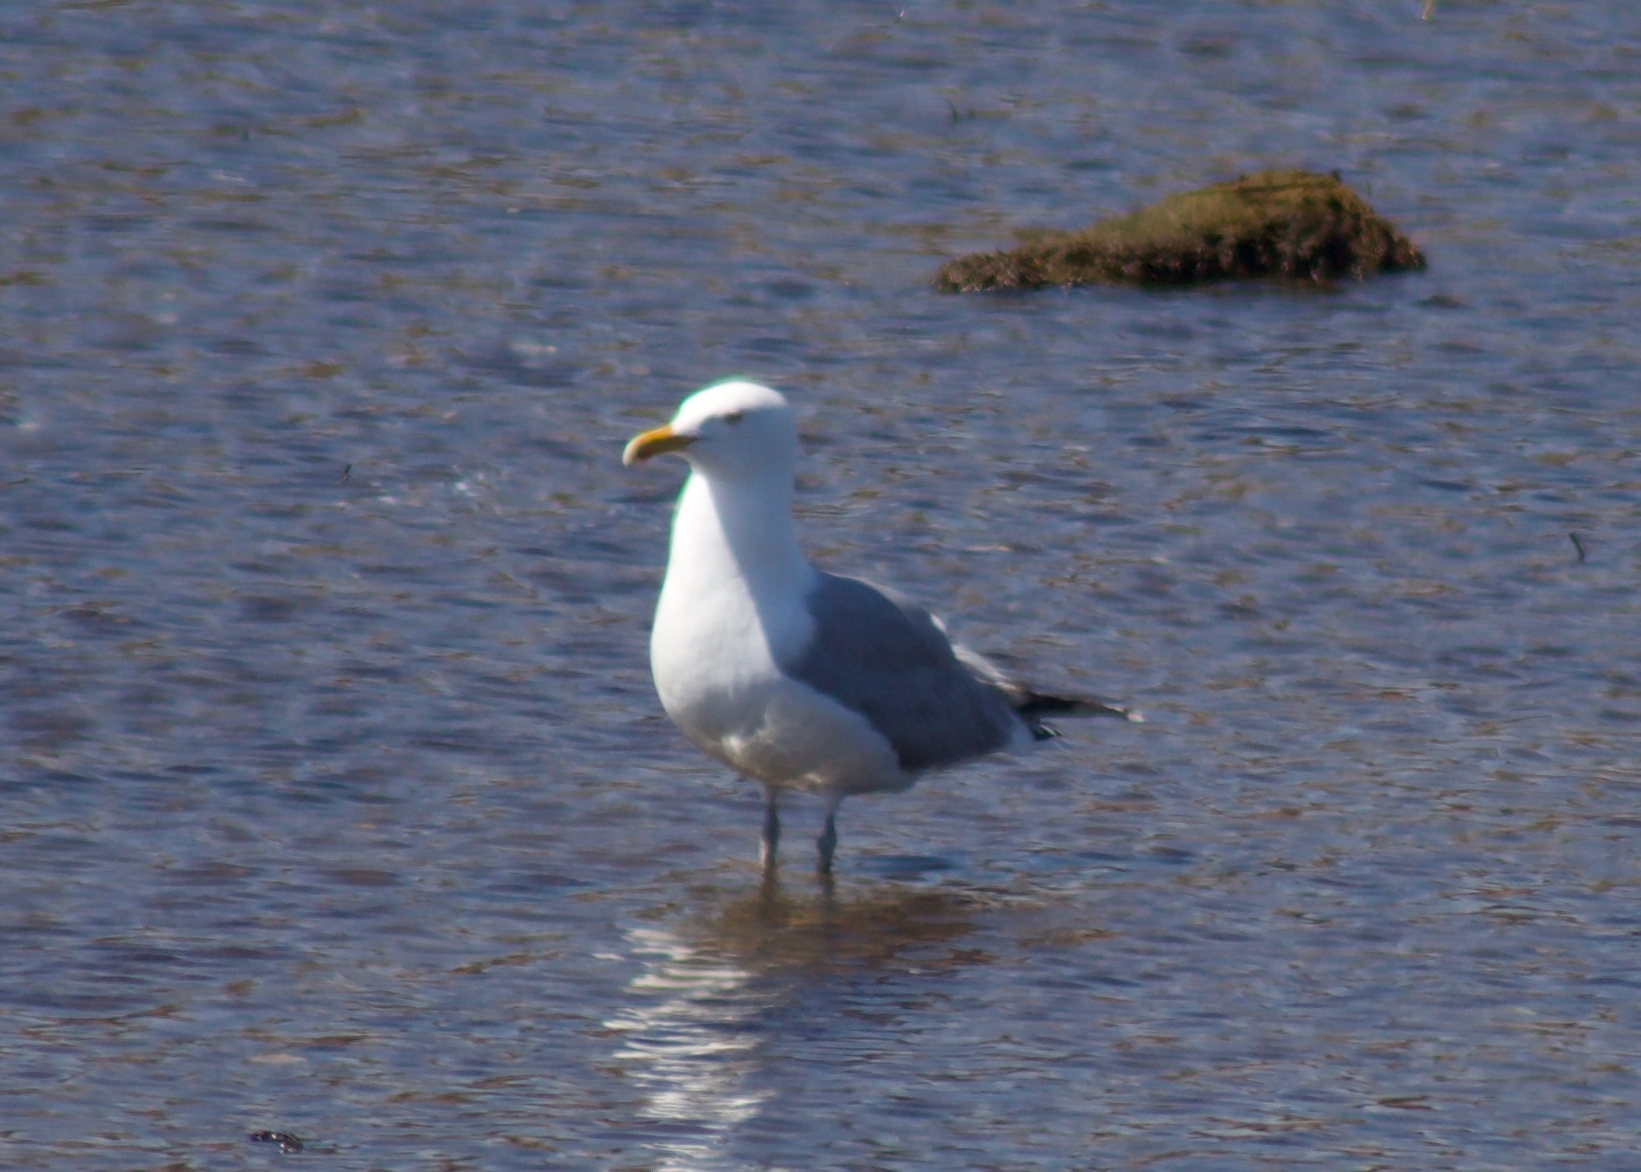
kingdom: Animalia
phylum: Chordata
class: Aves
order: Charadriiformes
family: Laridae
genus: Larus
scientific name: Larus argentatus
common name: Herring gull
